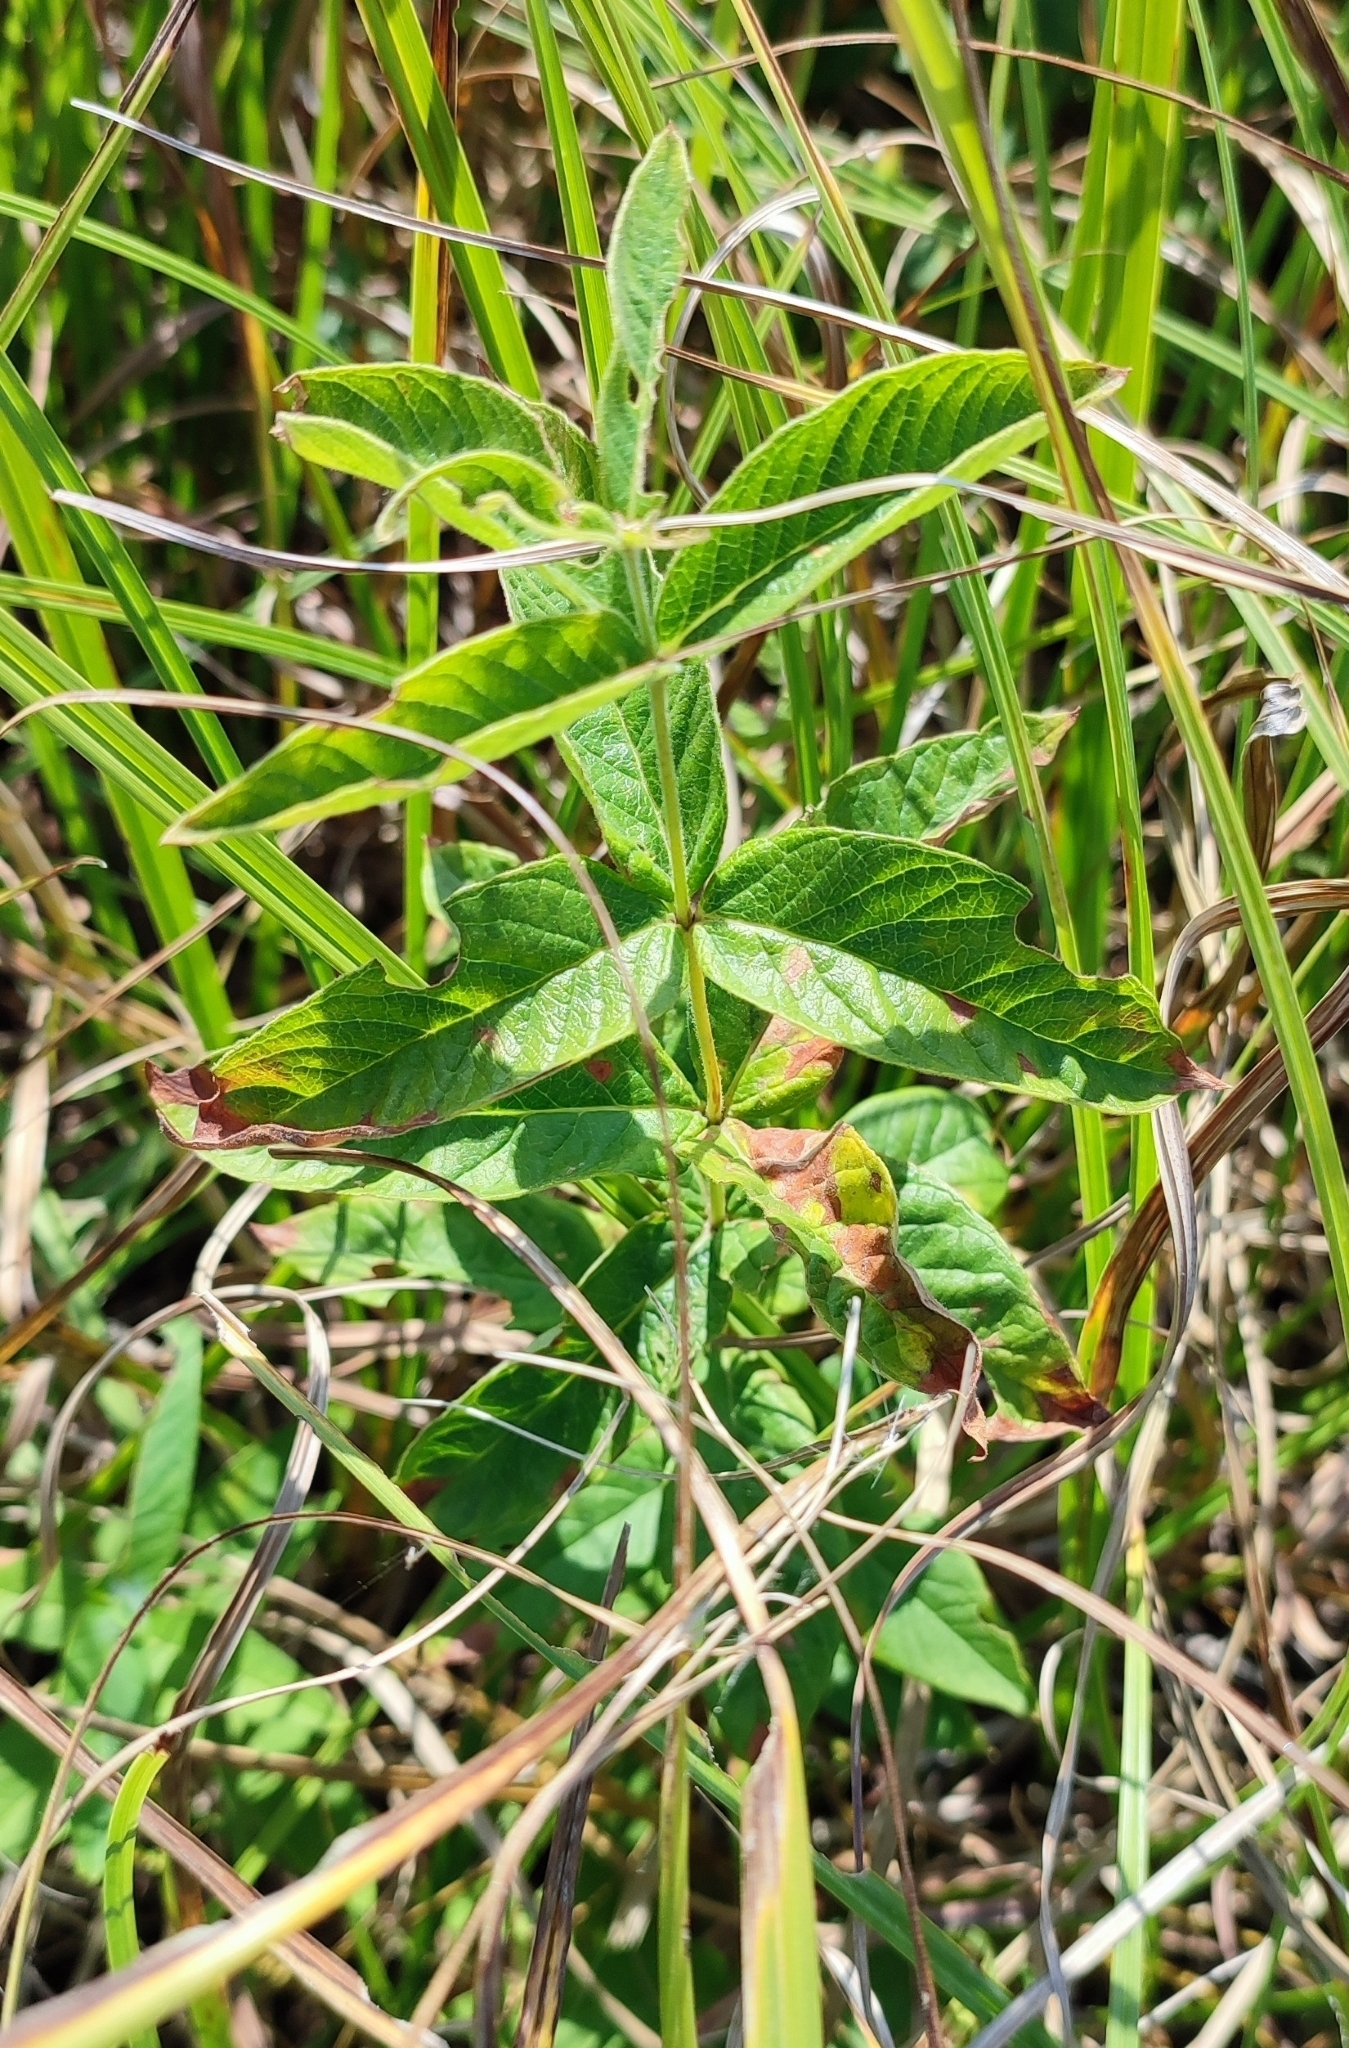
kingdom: Plantae
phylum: Tracheophyta
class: Magnoliopsida
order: Ericales
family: Primulaceae
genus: Lysimachia
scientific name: Lysimachia vulgaris
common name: Yellow loosestrife
